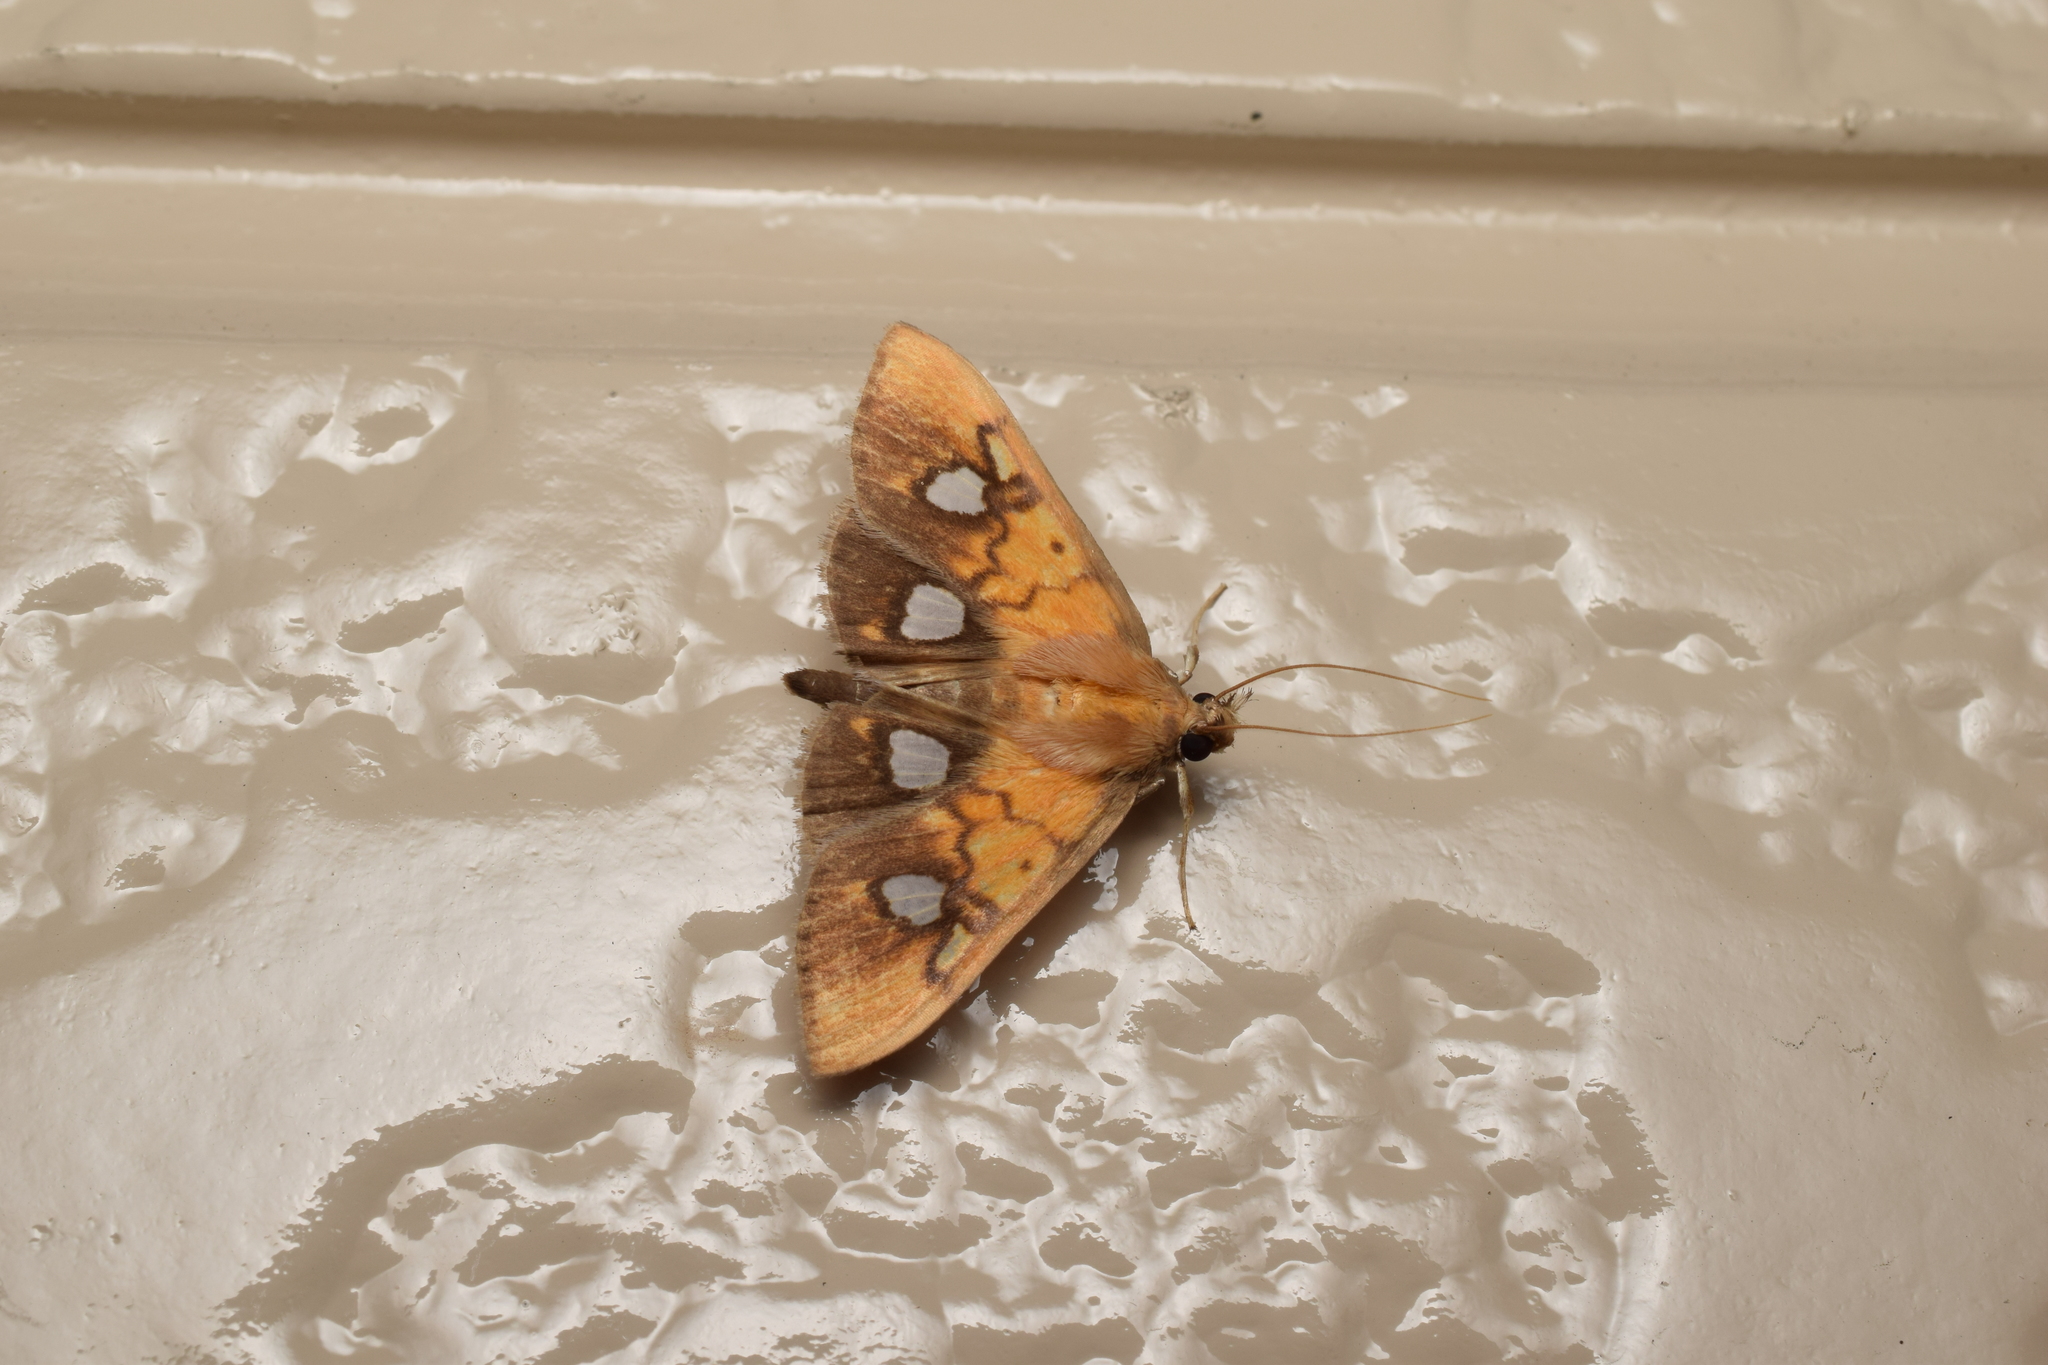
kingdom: Animalia
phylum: Arthropoda
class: Insecta
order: Lepidoptera
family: Crambidae
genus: Nosophora
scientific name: Nosophora semitritalis
